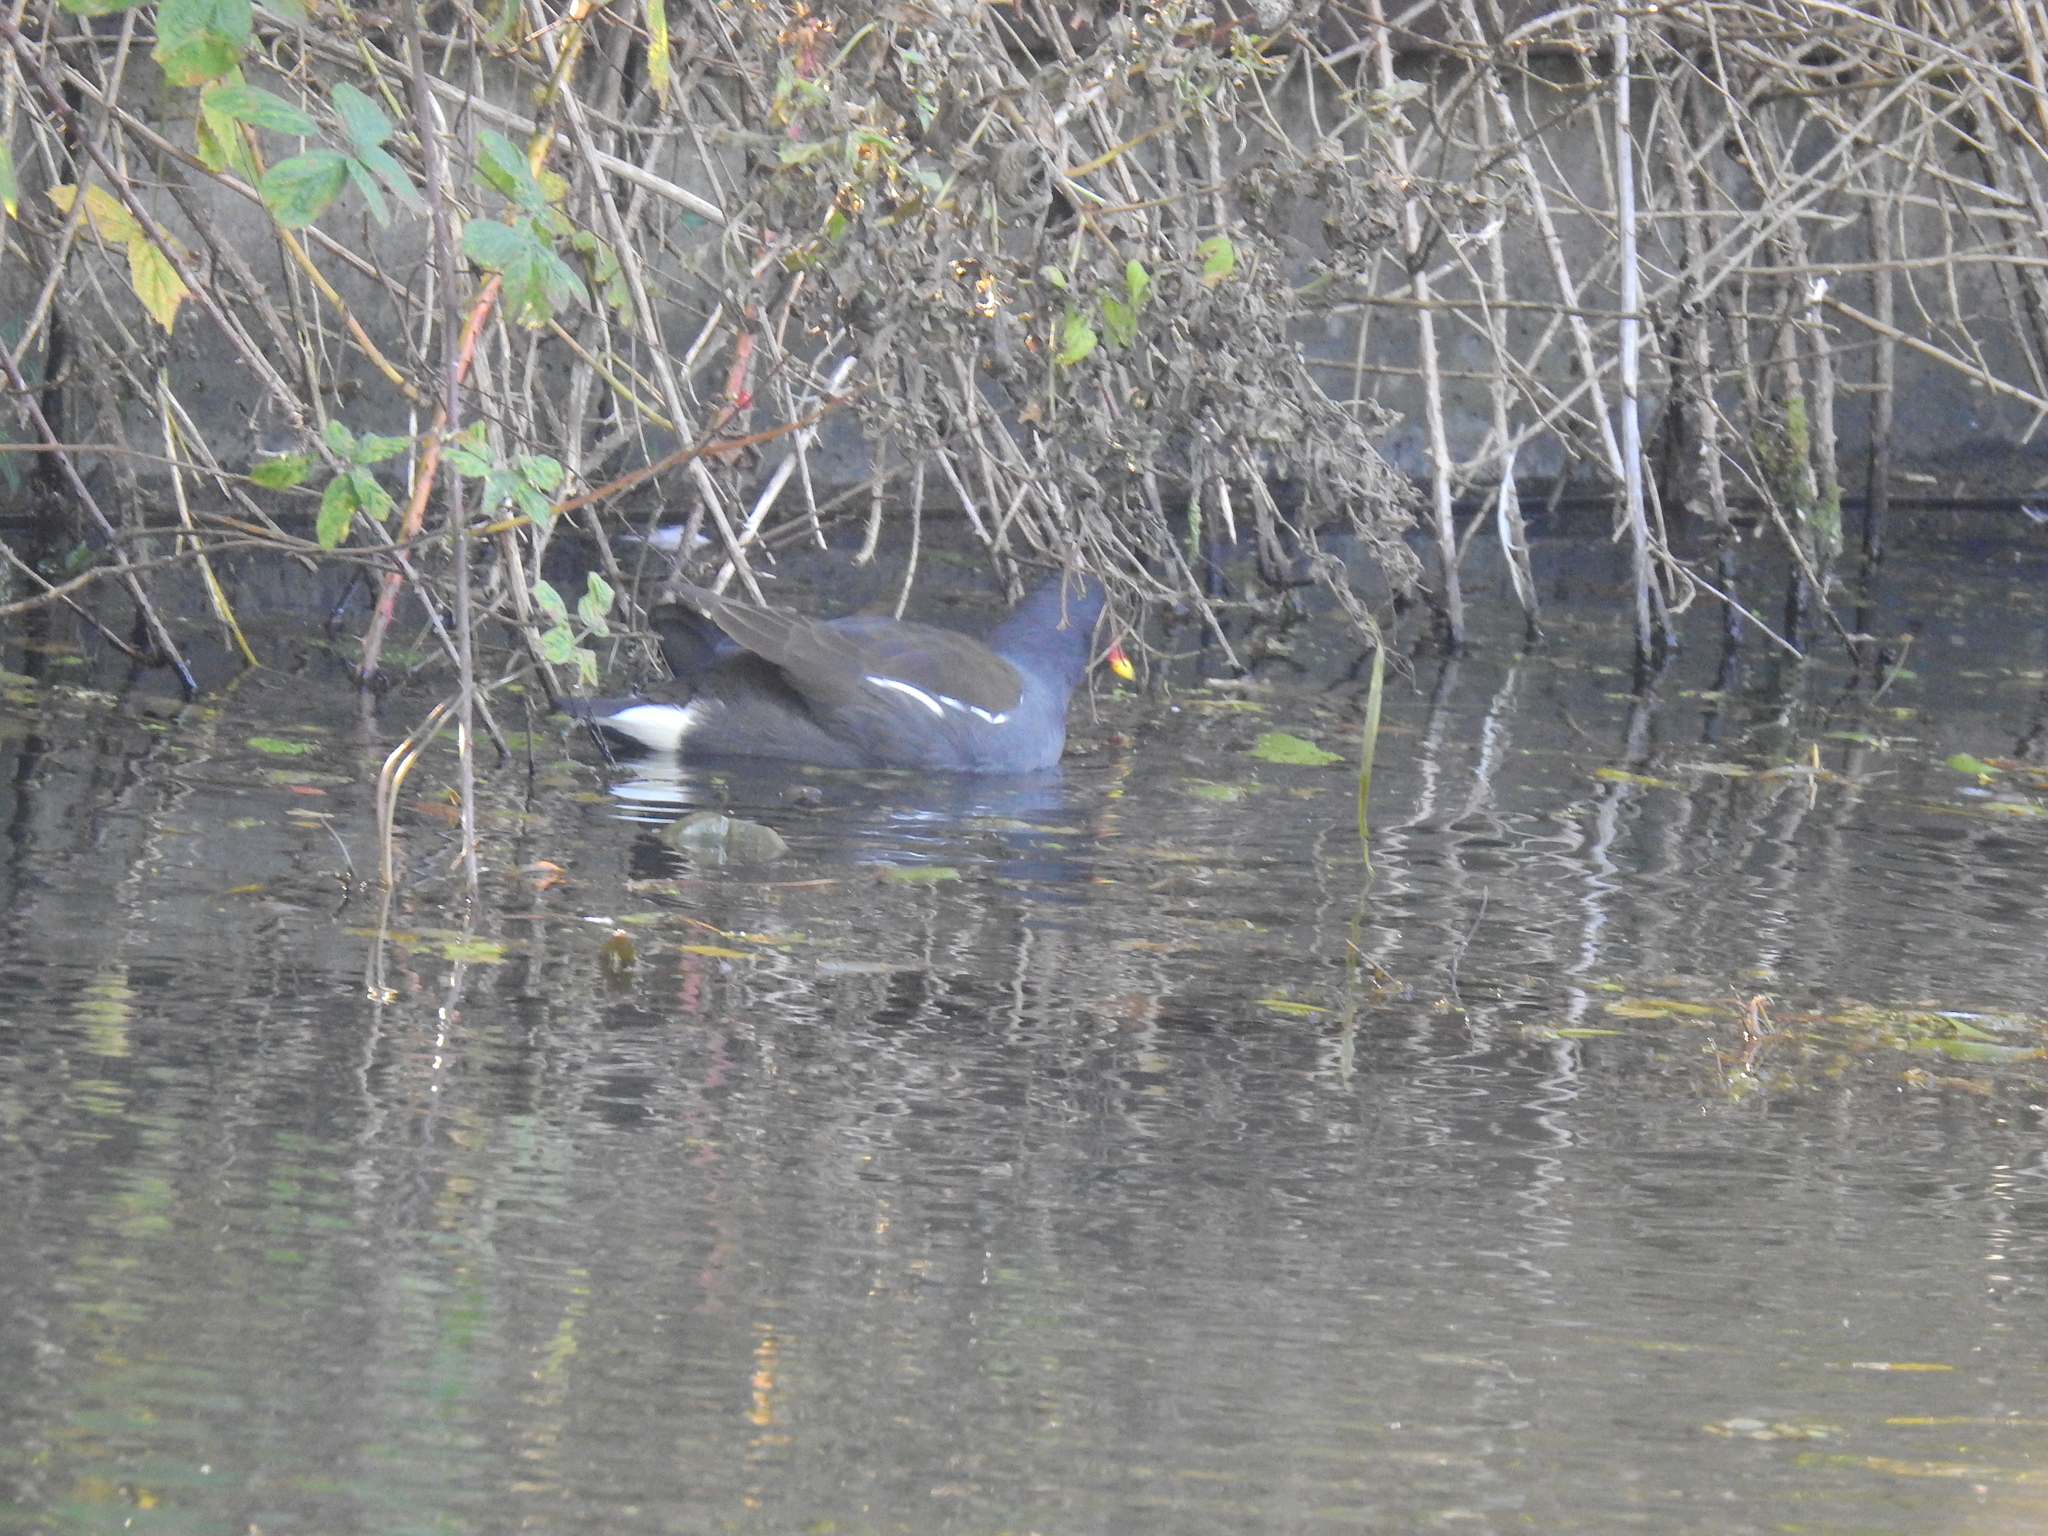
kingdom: Animalia
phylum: Chordata
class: Aves
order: Gruiformes
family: Rallidae
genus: Gallinula
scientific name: Gallinula chloropus
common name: Common moorhen
